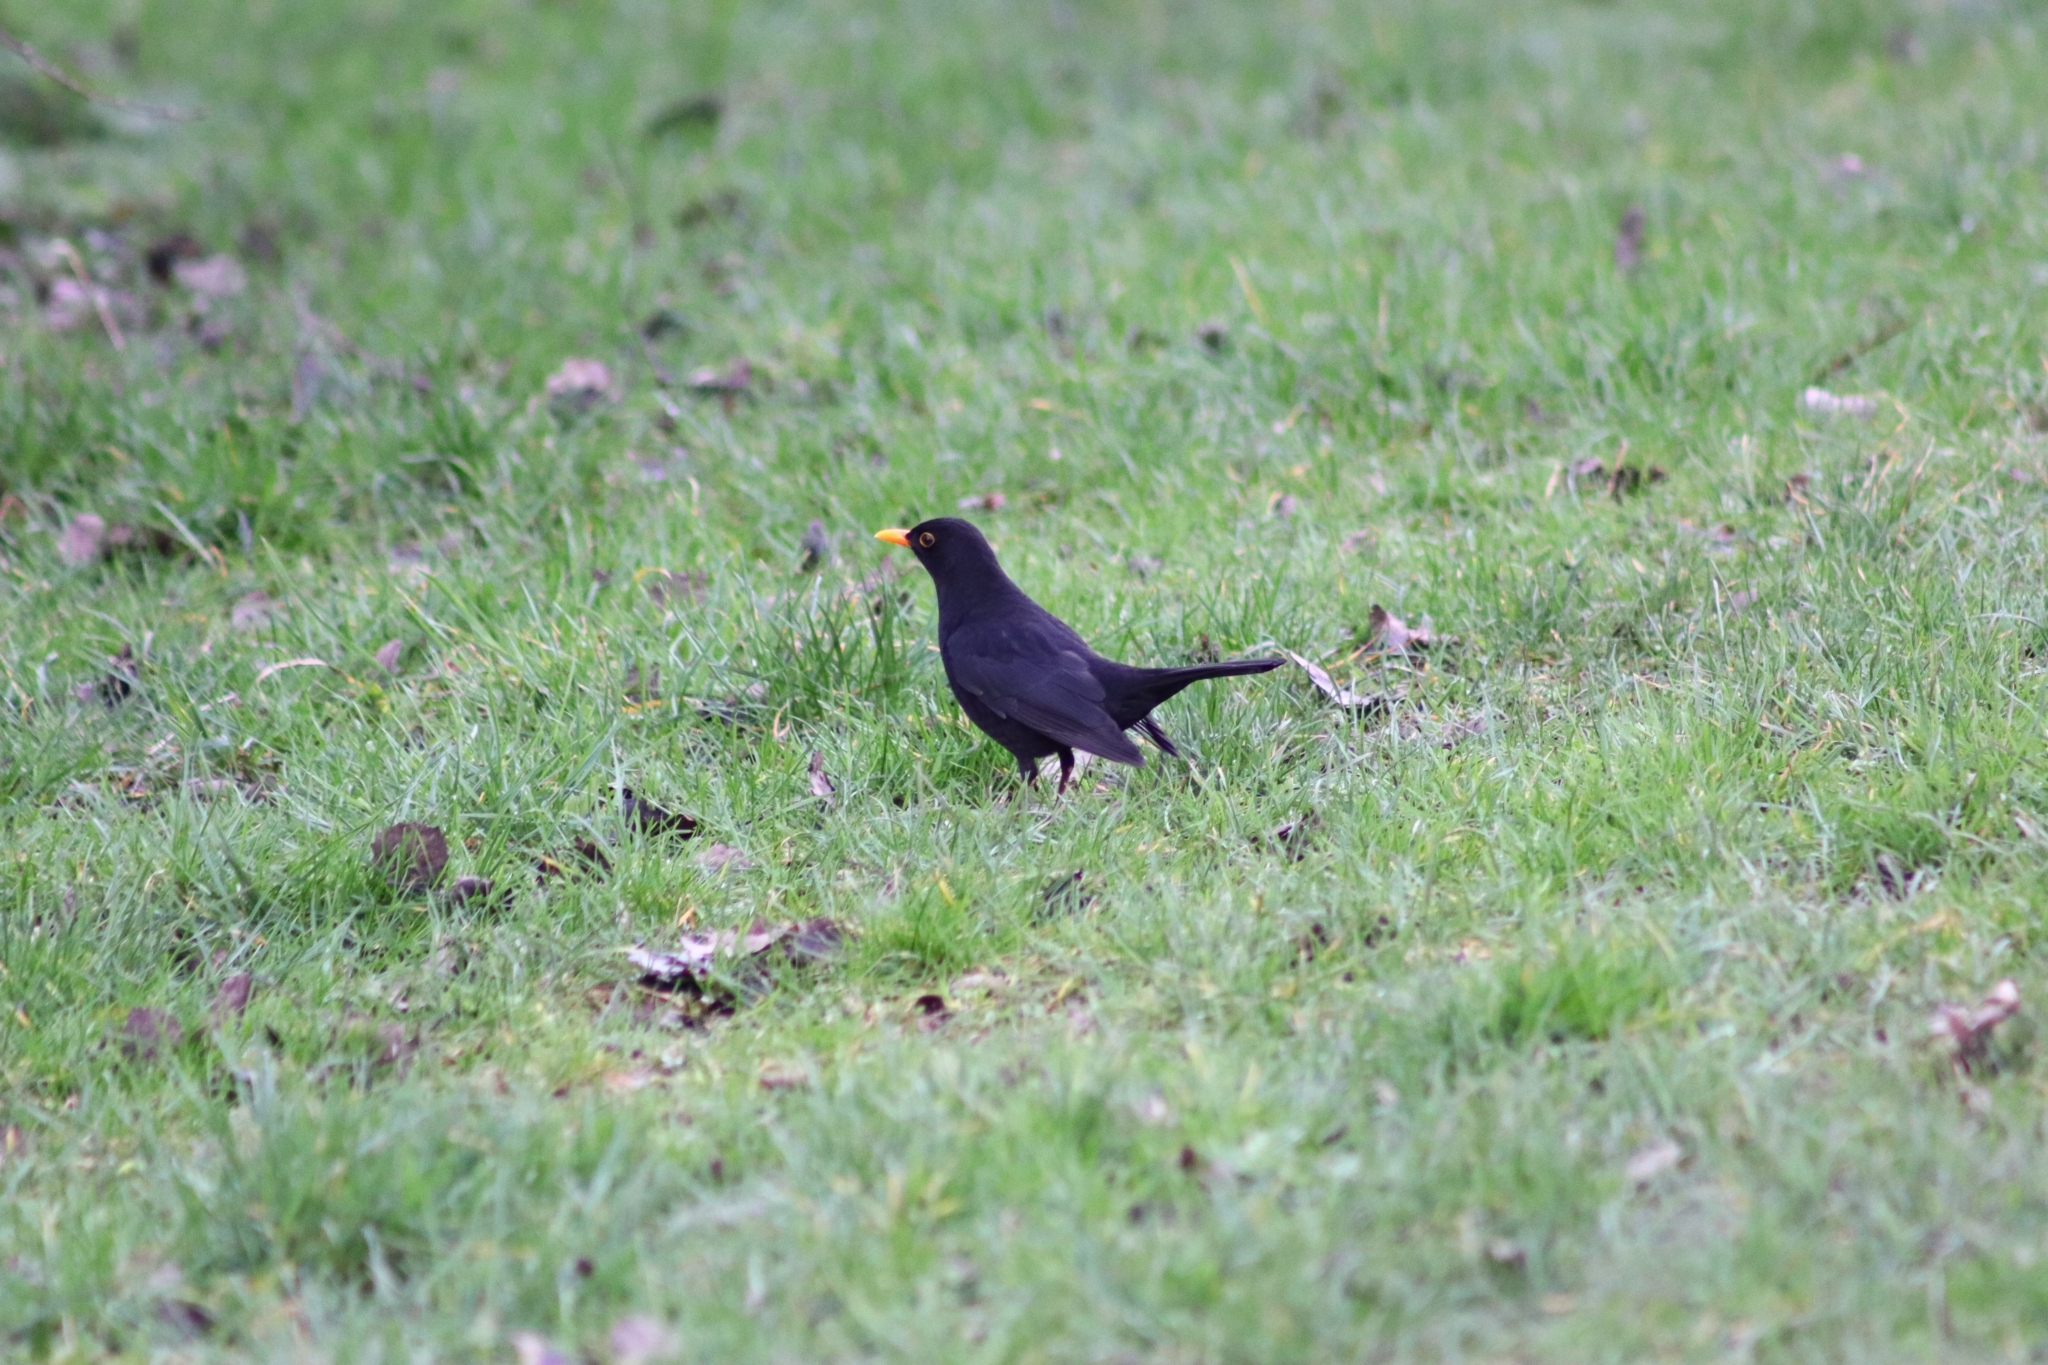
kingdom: Animalia
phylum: Chordata
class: Aves
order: Passeriformes
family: Turdidae
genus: Turdus
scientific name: Turdus merula
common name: Common blackbird
